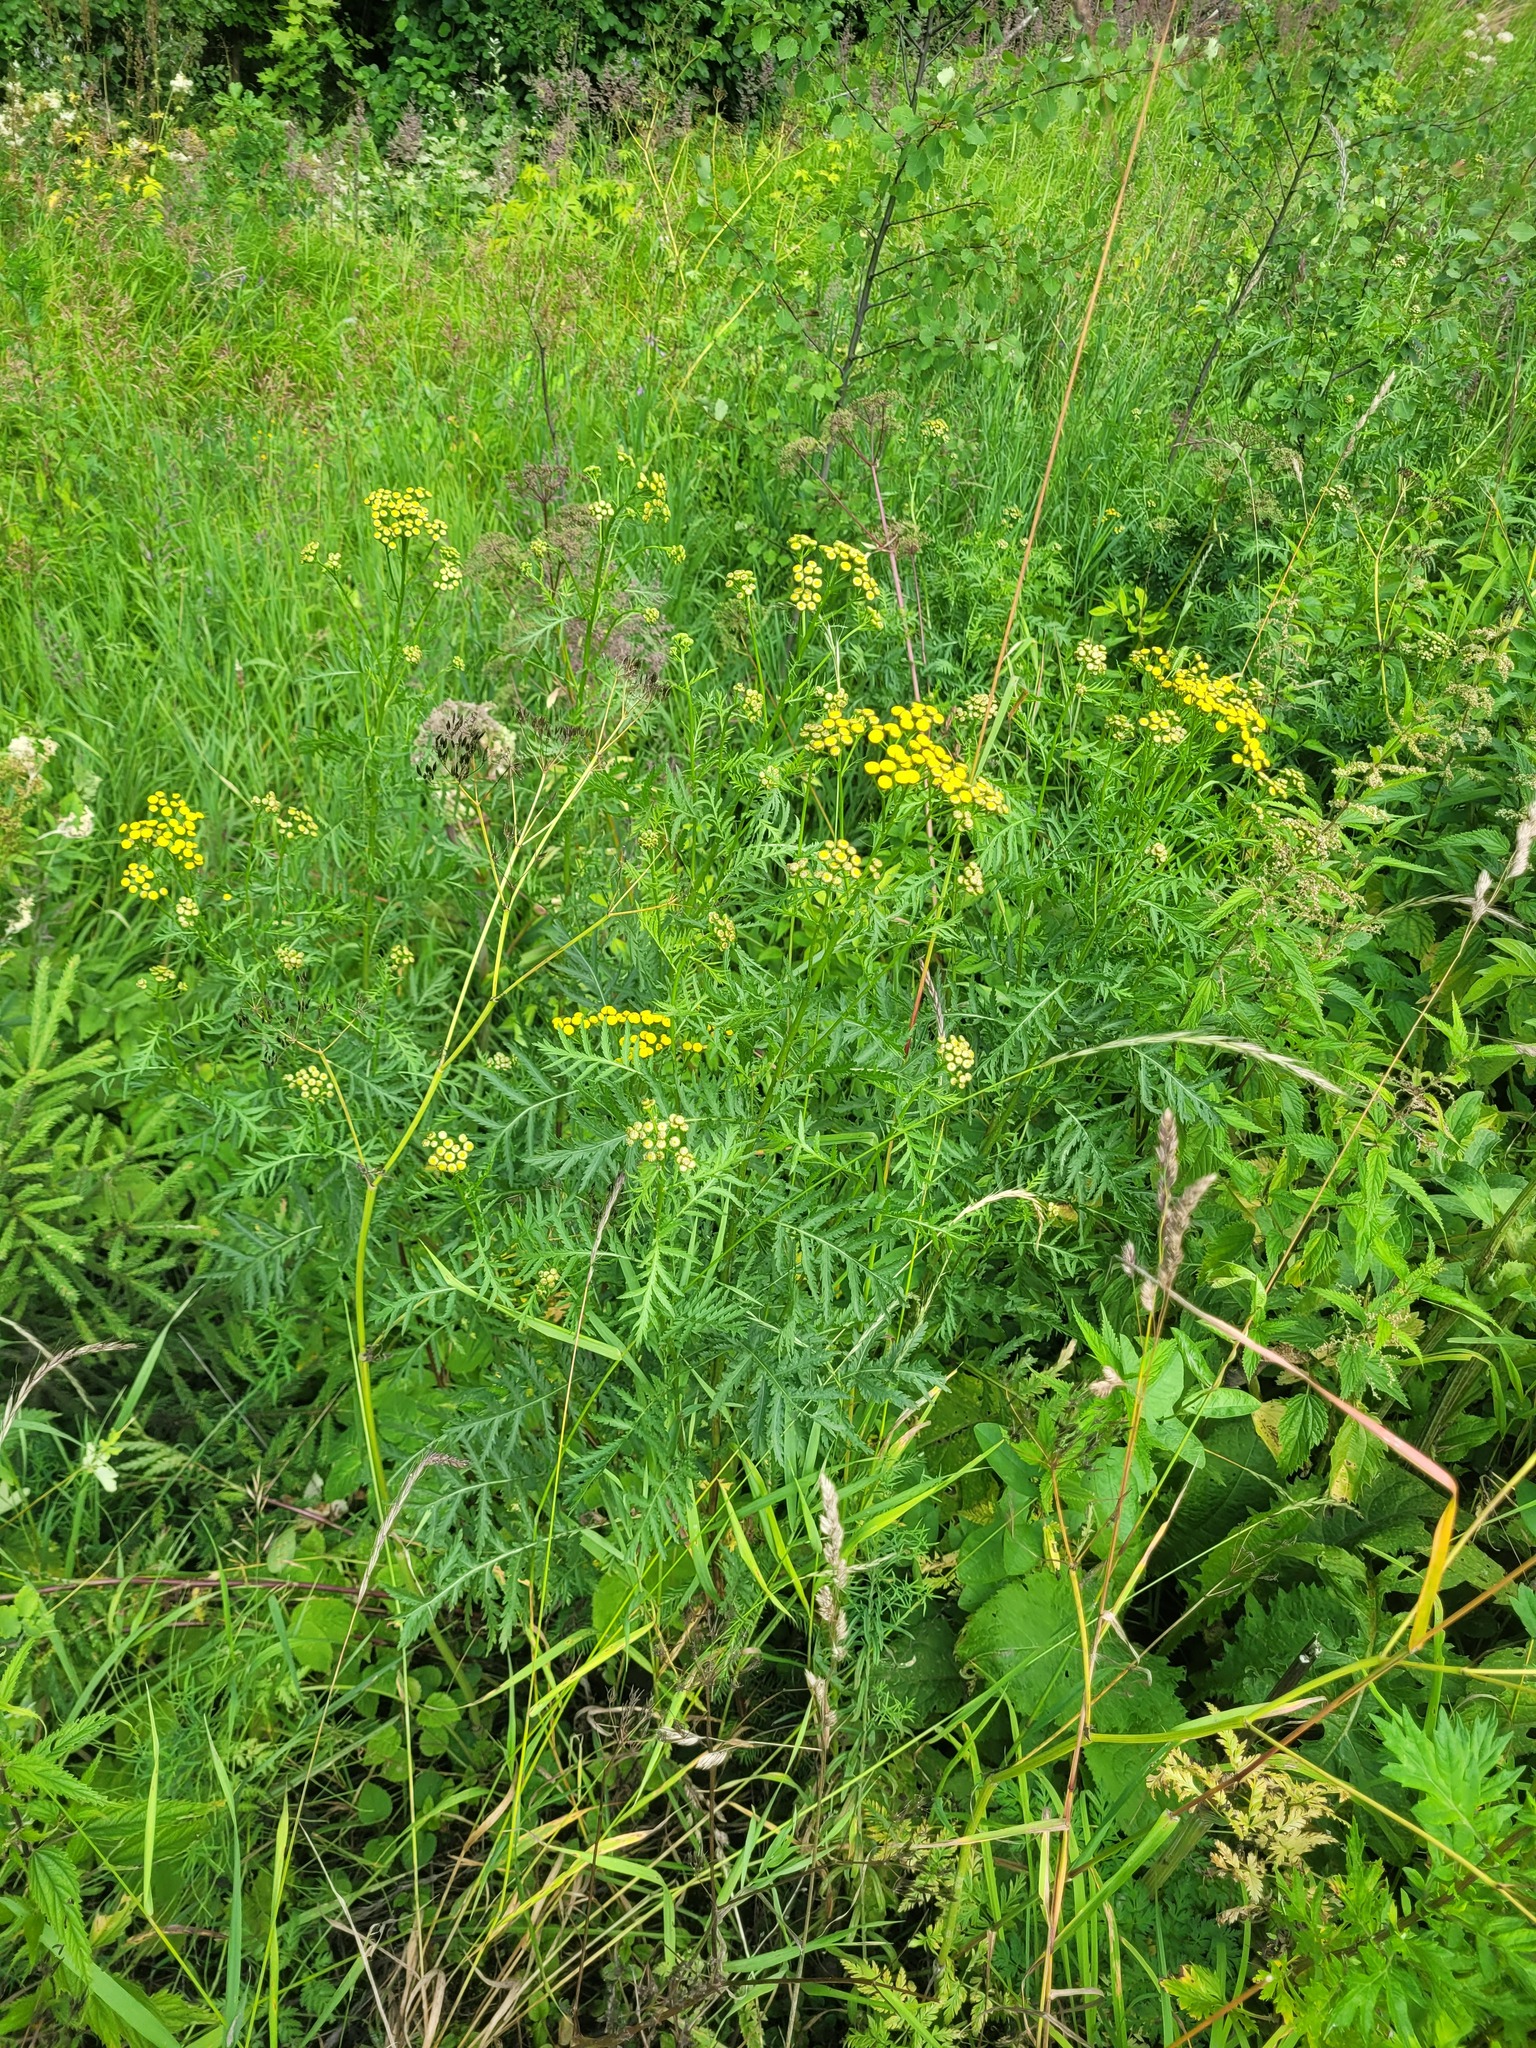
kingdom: Plantae
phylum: Tracheophyta
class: Magnoliopsida
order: Asterales
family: Asteraceae
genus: Tanacetum
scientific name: Tanacetum vulgare
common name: Common tansy
